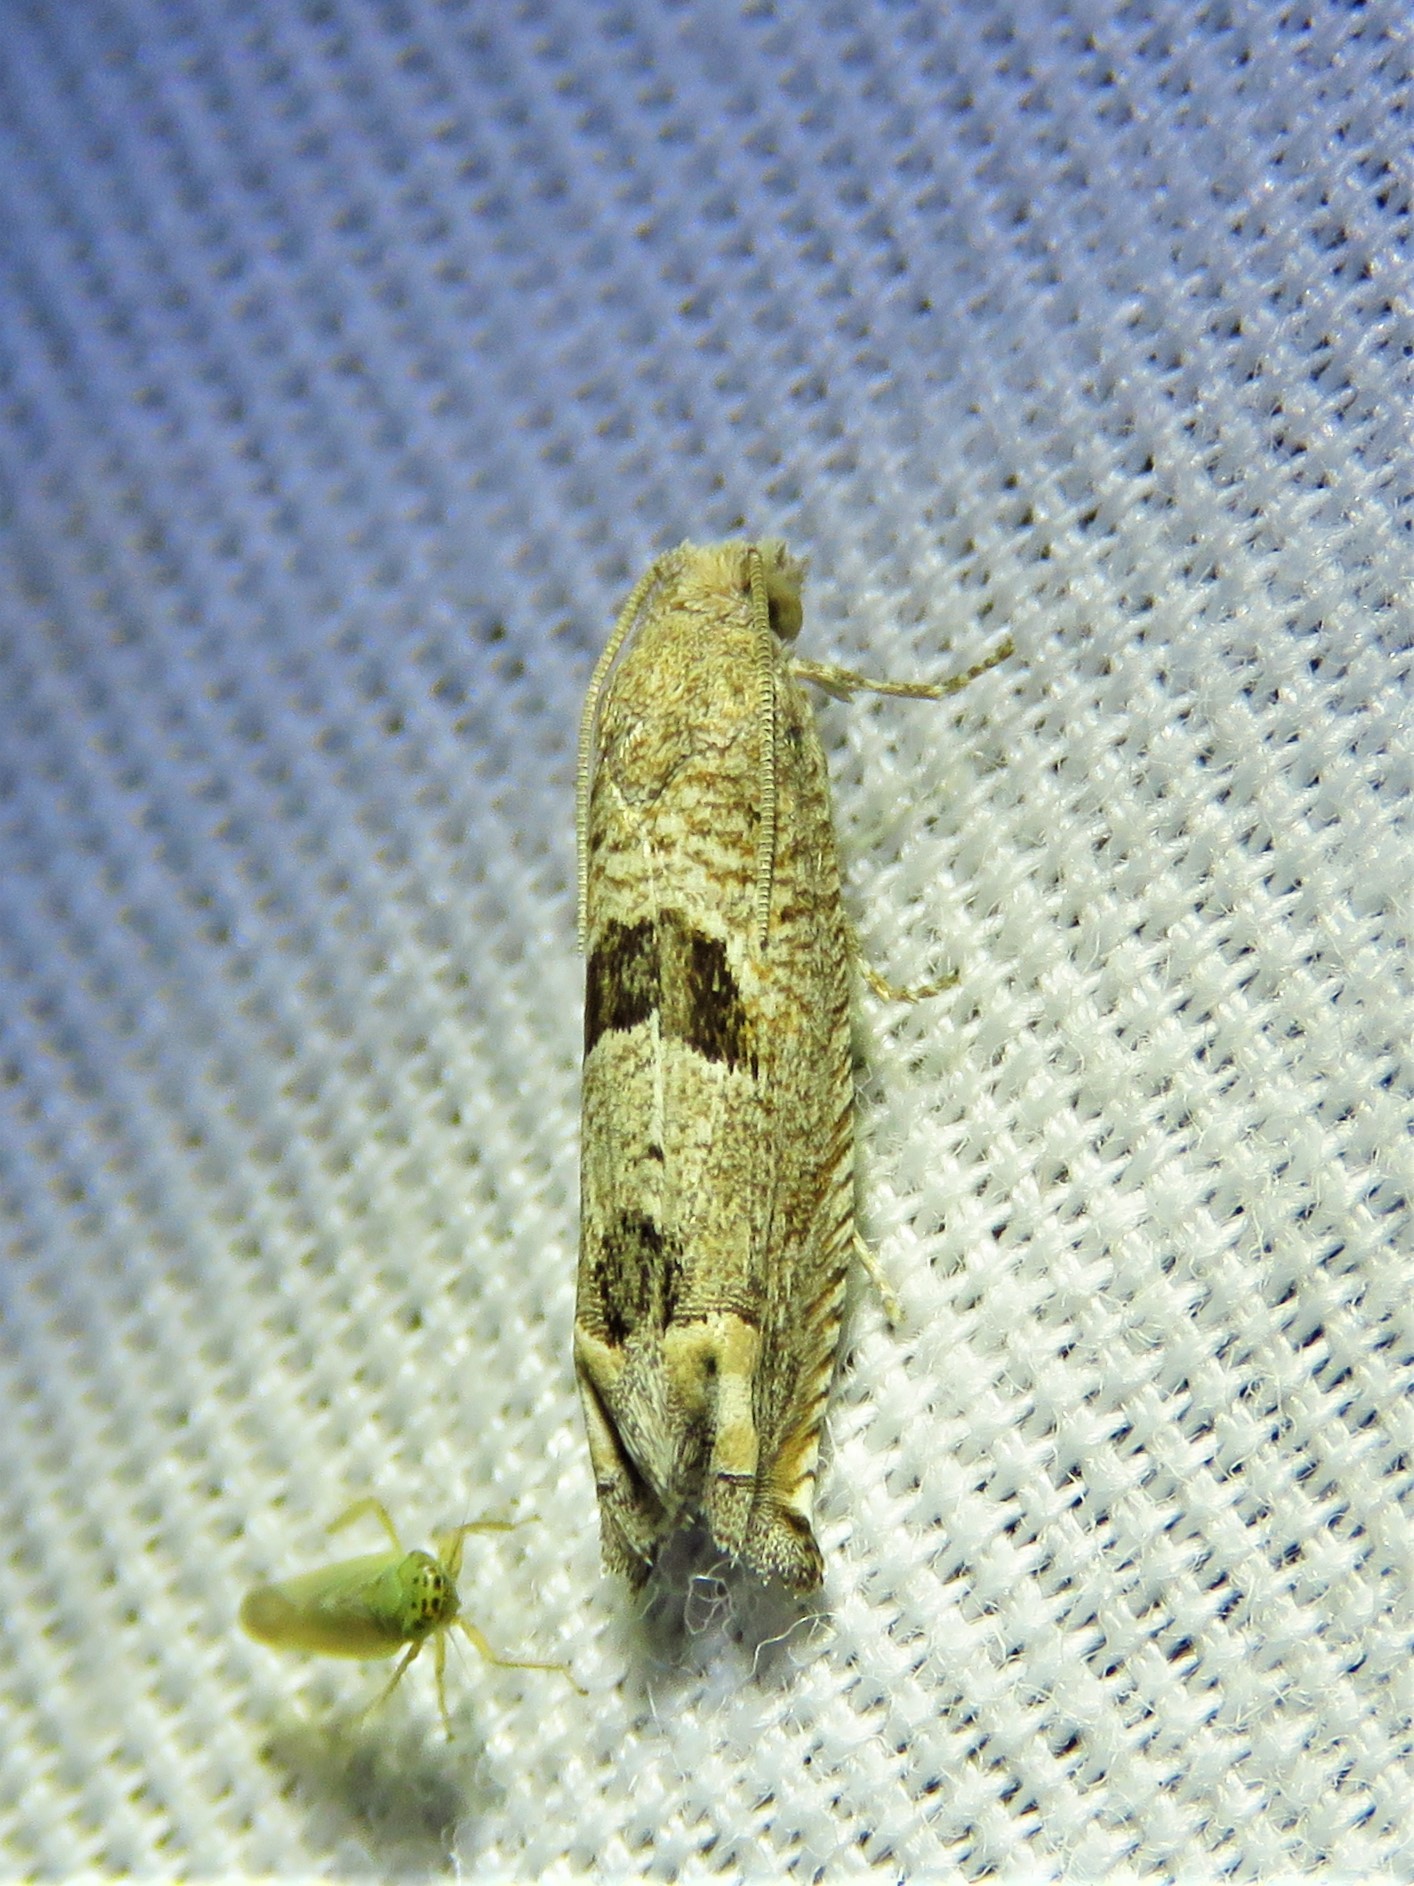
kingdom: Animalia
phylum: Arthropoda
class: Insecta
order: Lepidoptera
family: Tortricidae
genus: Suleima
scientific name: Suleima helianthana
